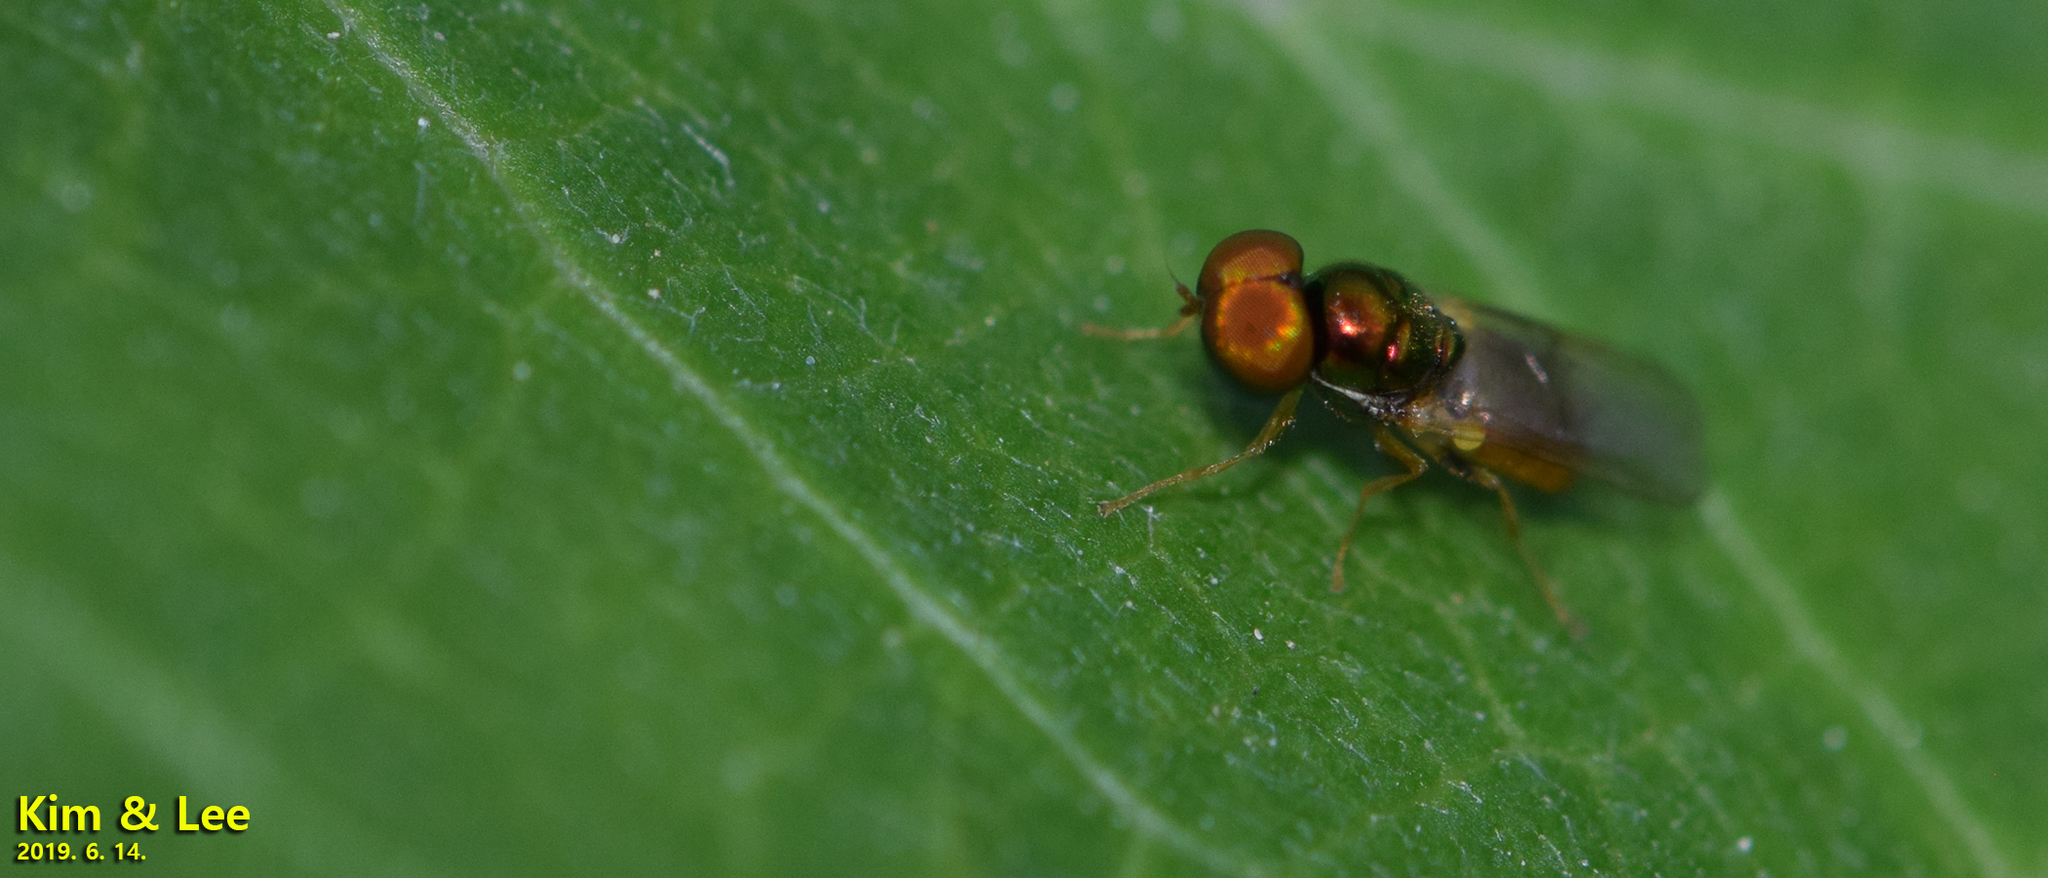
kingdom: Animalia
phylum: Arthropoda
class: Insecta
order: Diptera
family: Stratiomyidae
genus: Microchrysa
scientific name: Microchrysa flaviventris
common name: Soldier fly
